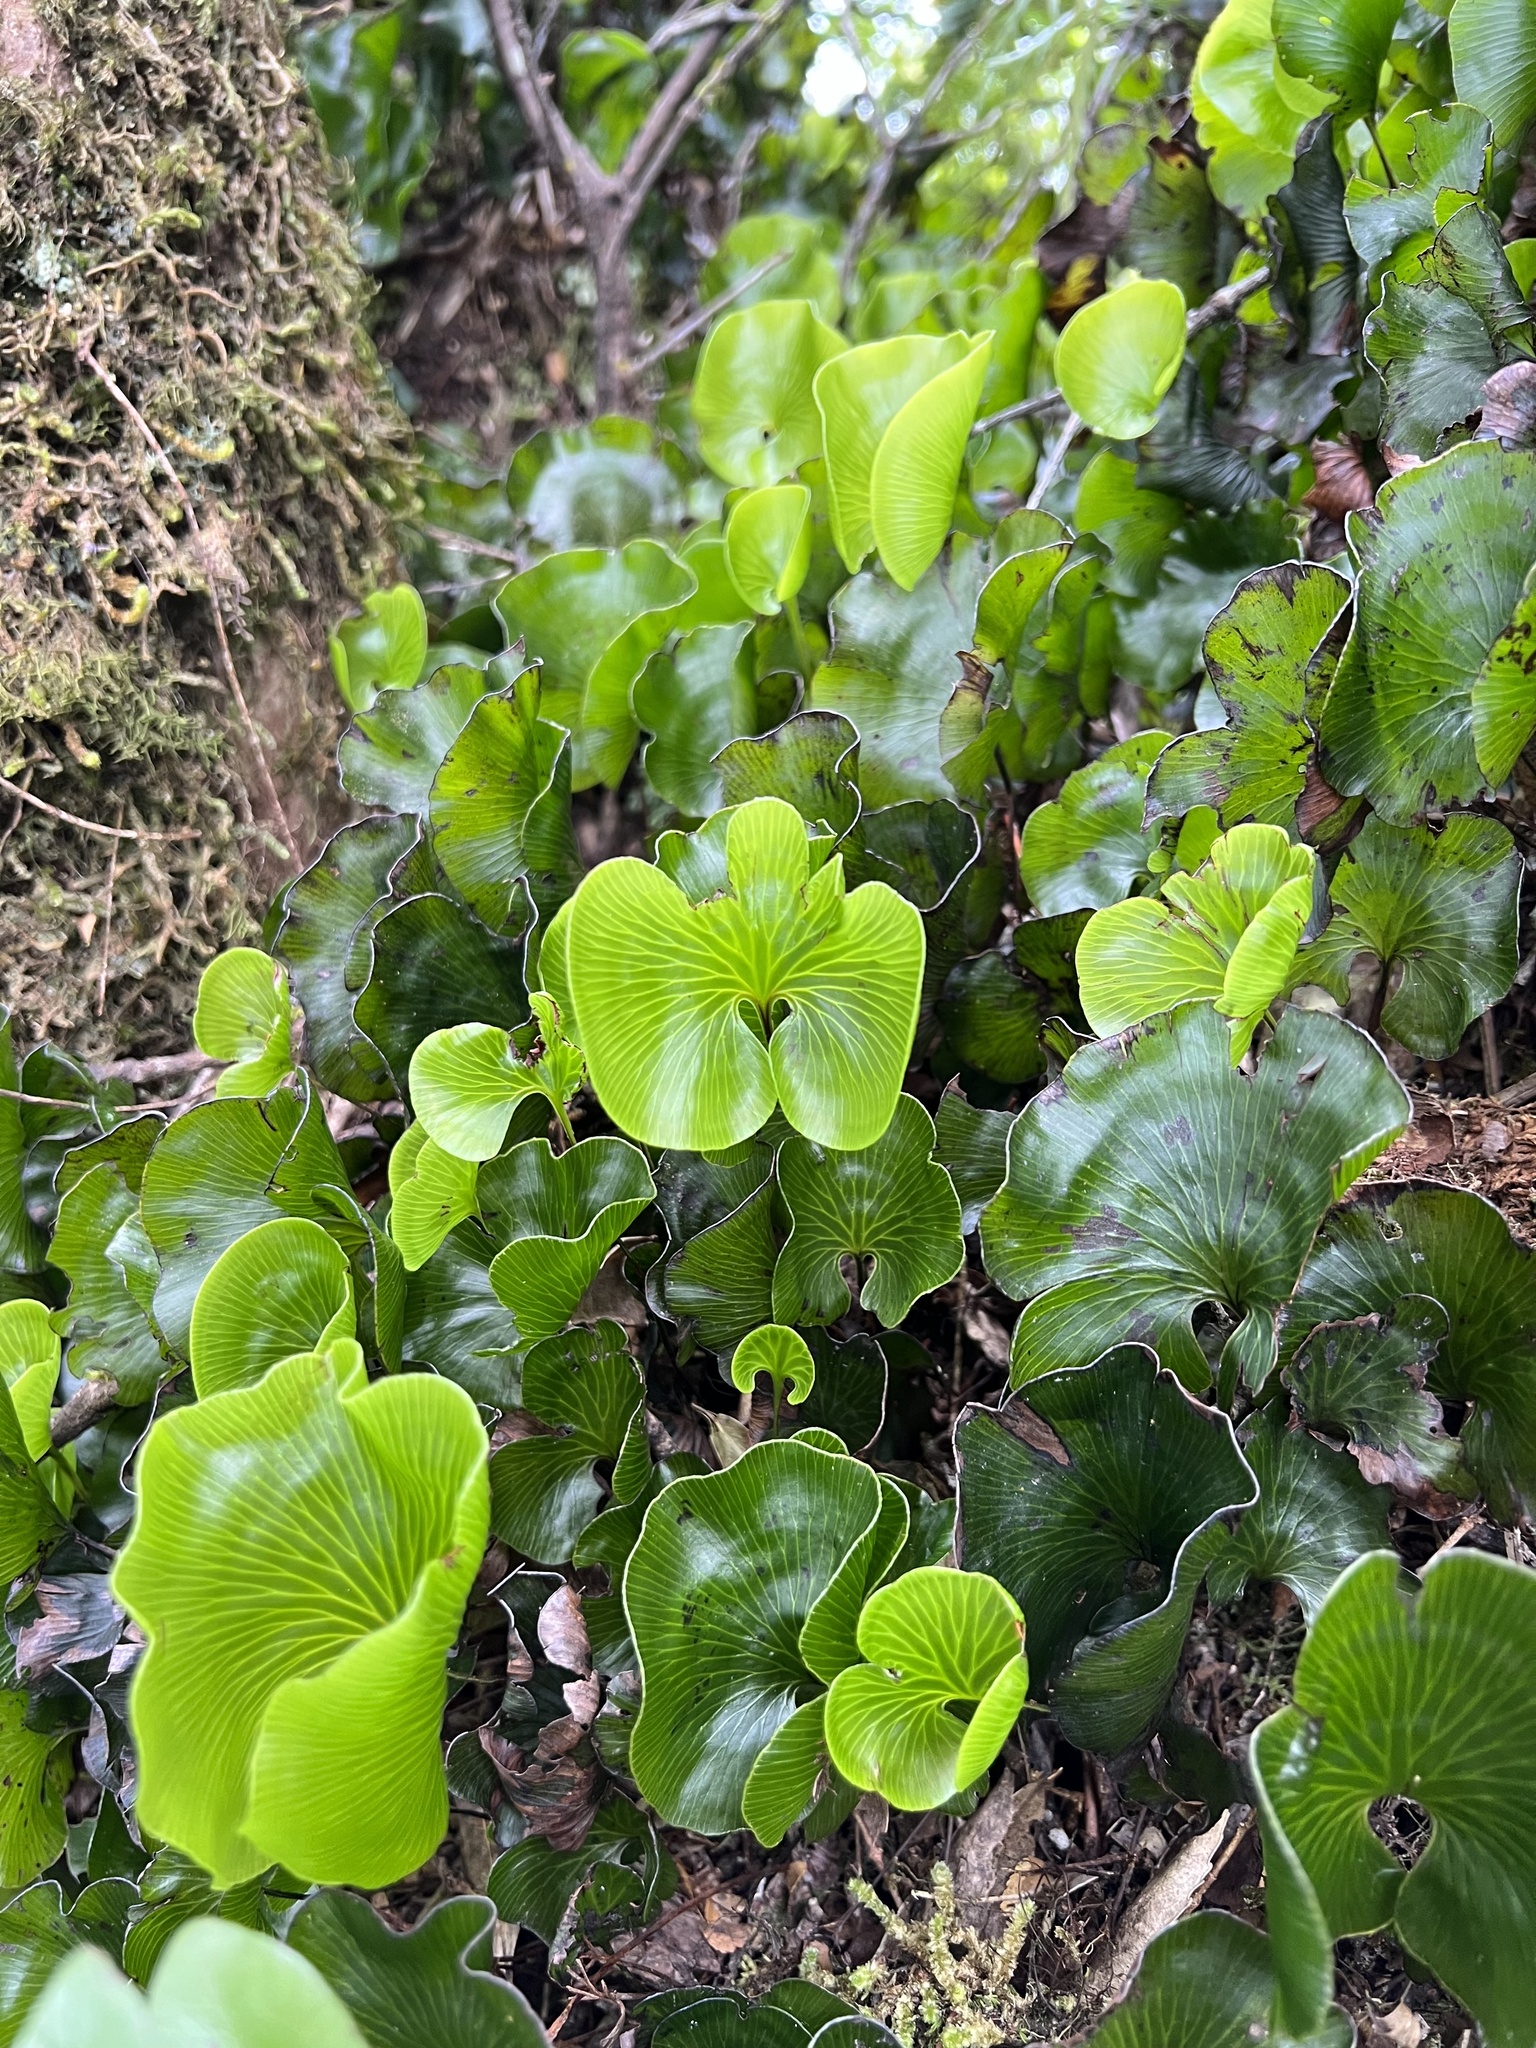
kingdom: Plantae
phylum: Tracheophyta
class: Polypodiopsida
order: Hymenophyllales
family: Hymenophyllaceae
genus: Hymenophyllum
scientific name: Hymenophyllum nephrophyllum
